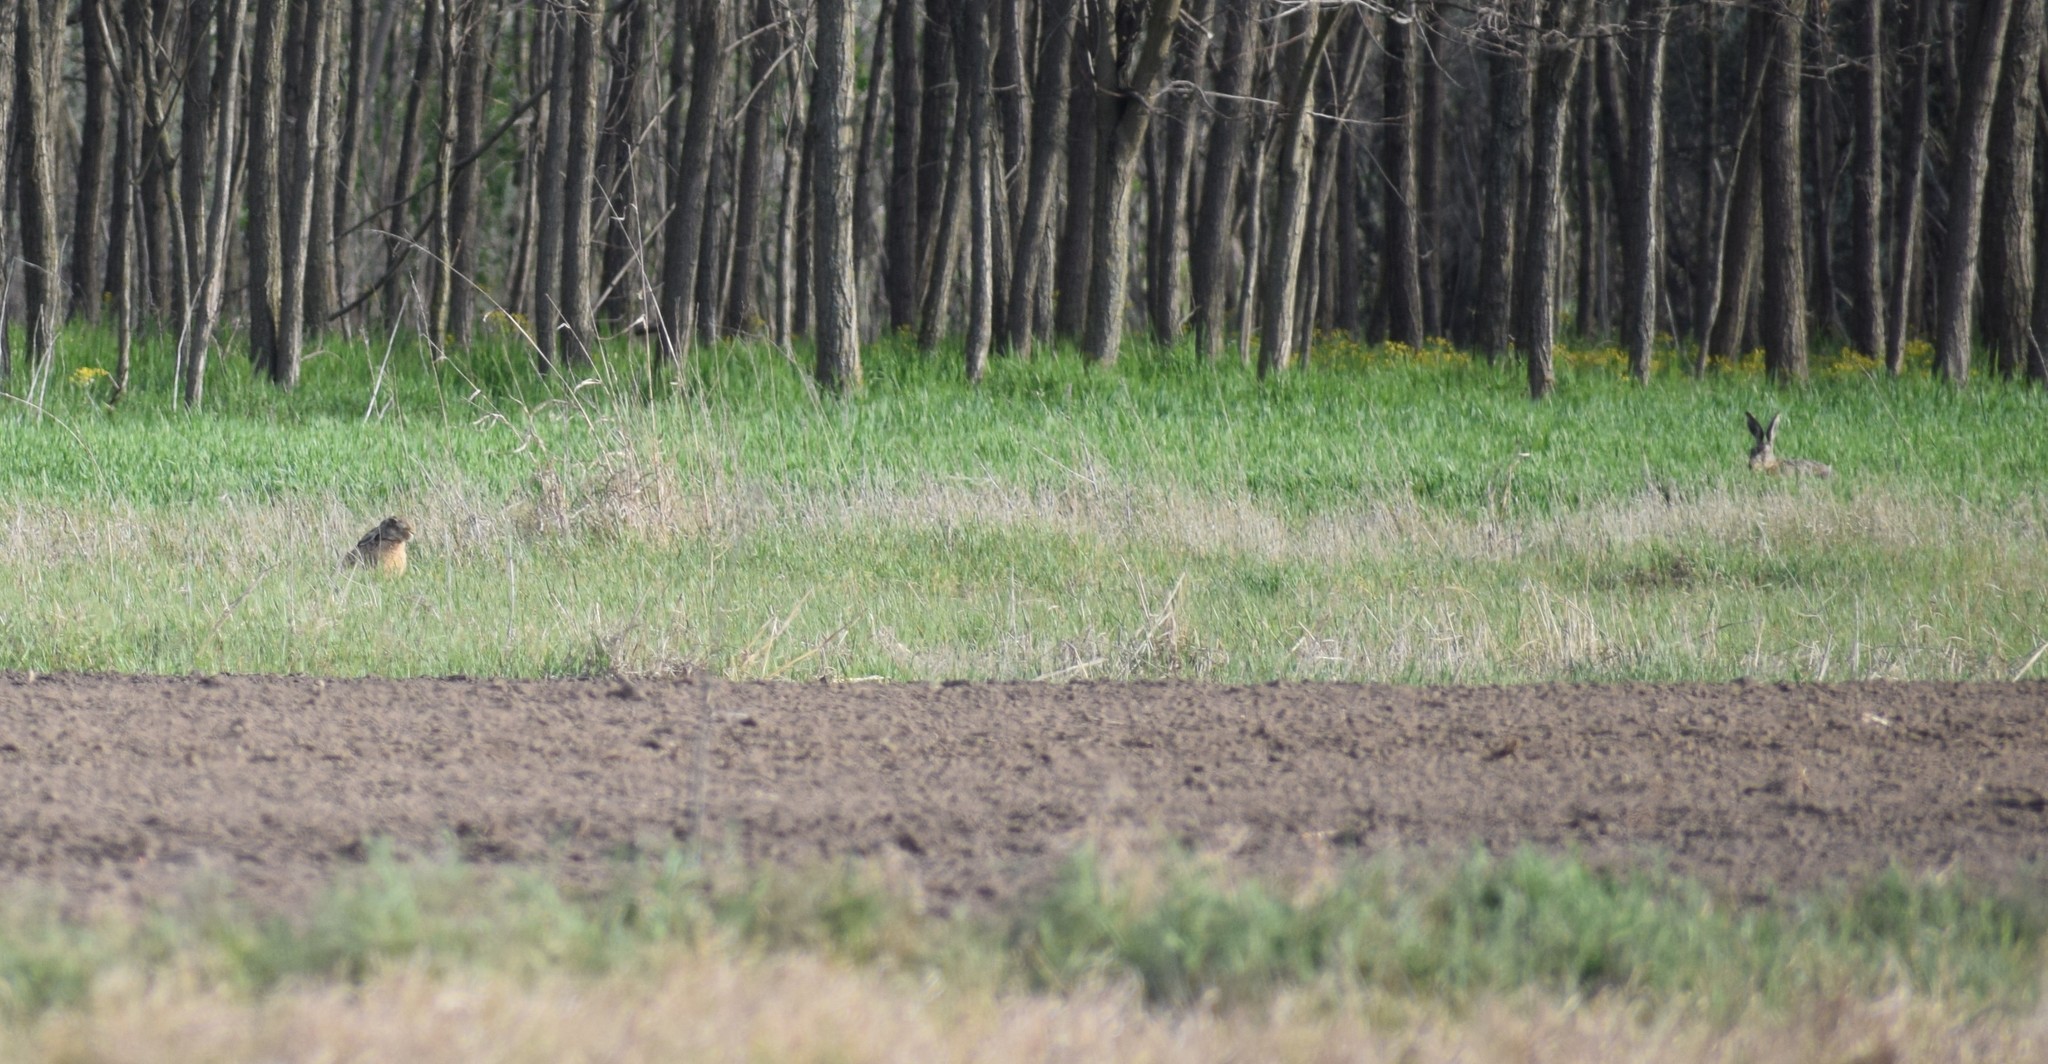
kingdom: Animalia
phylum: Chordata
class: Mammalia
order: Lagomorpha
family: Leporidae
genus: Lepus
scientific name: Lepus europaeus
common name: European hare
